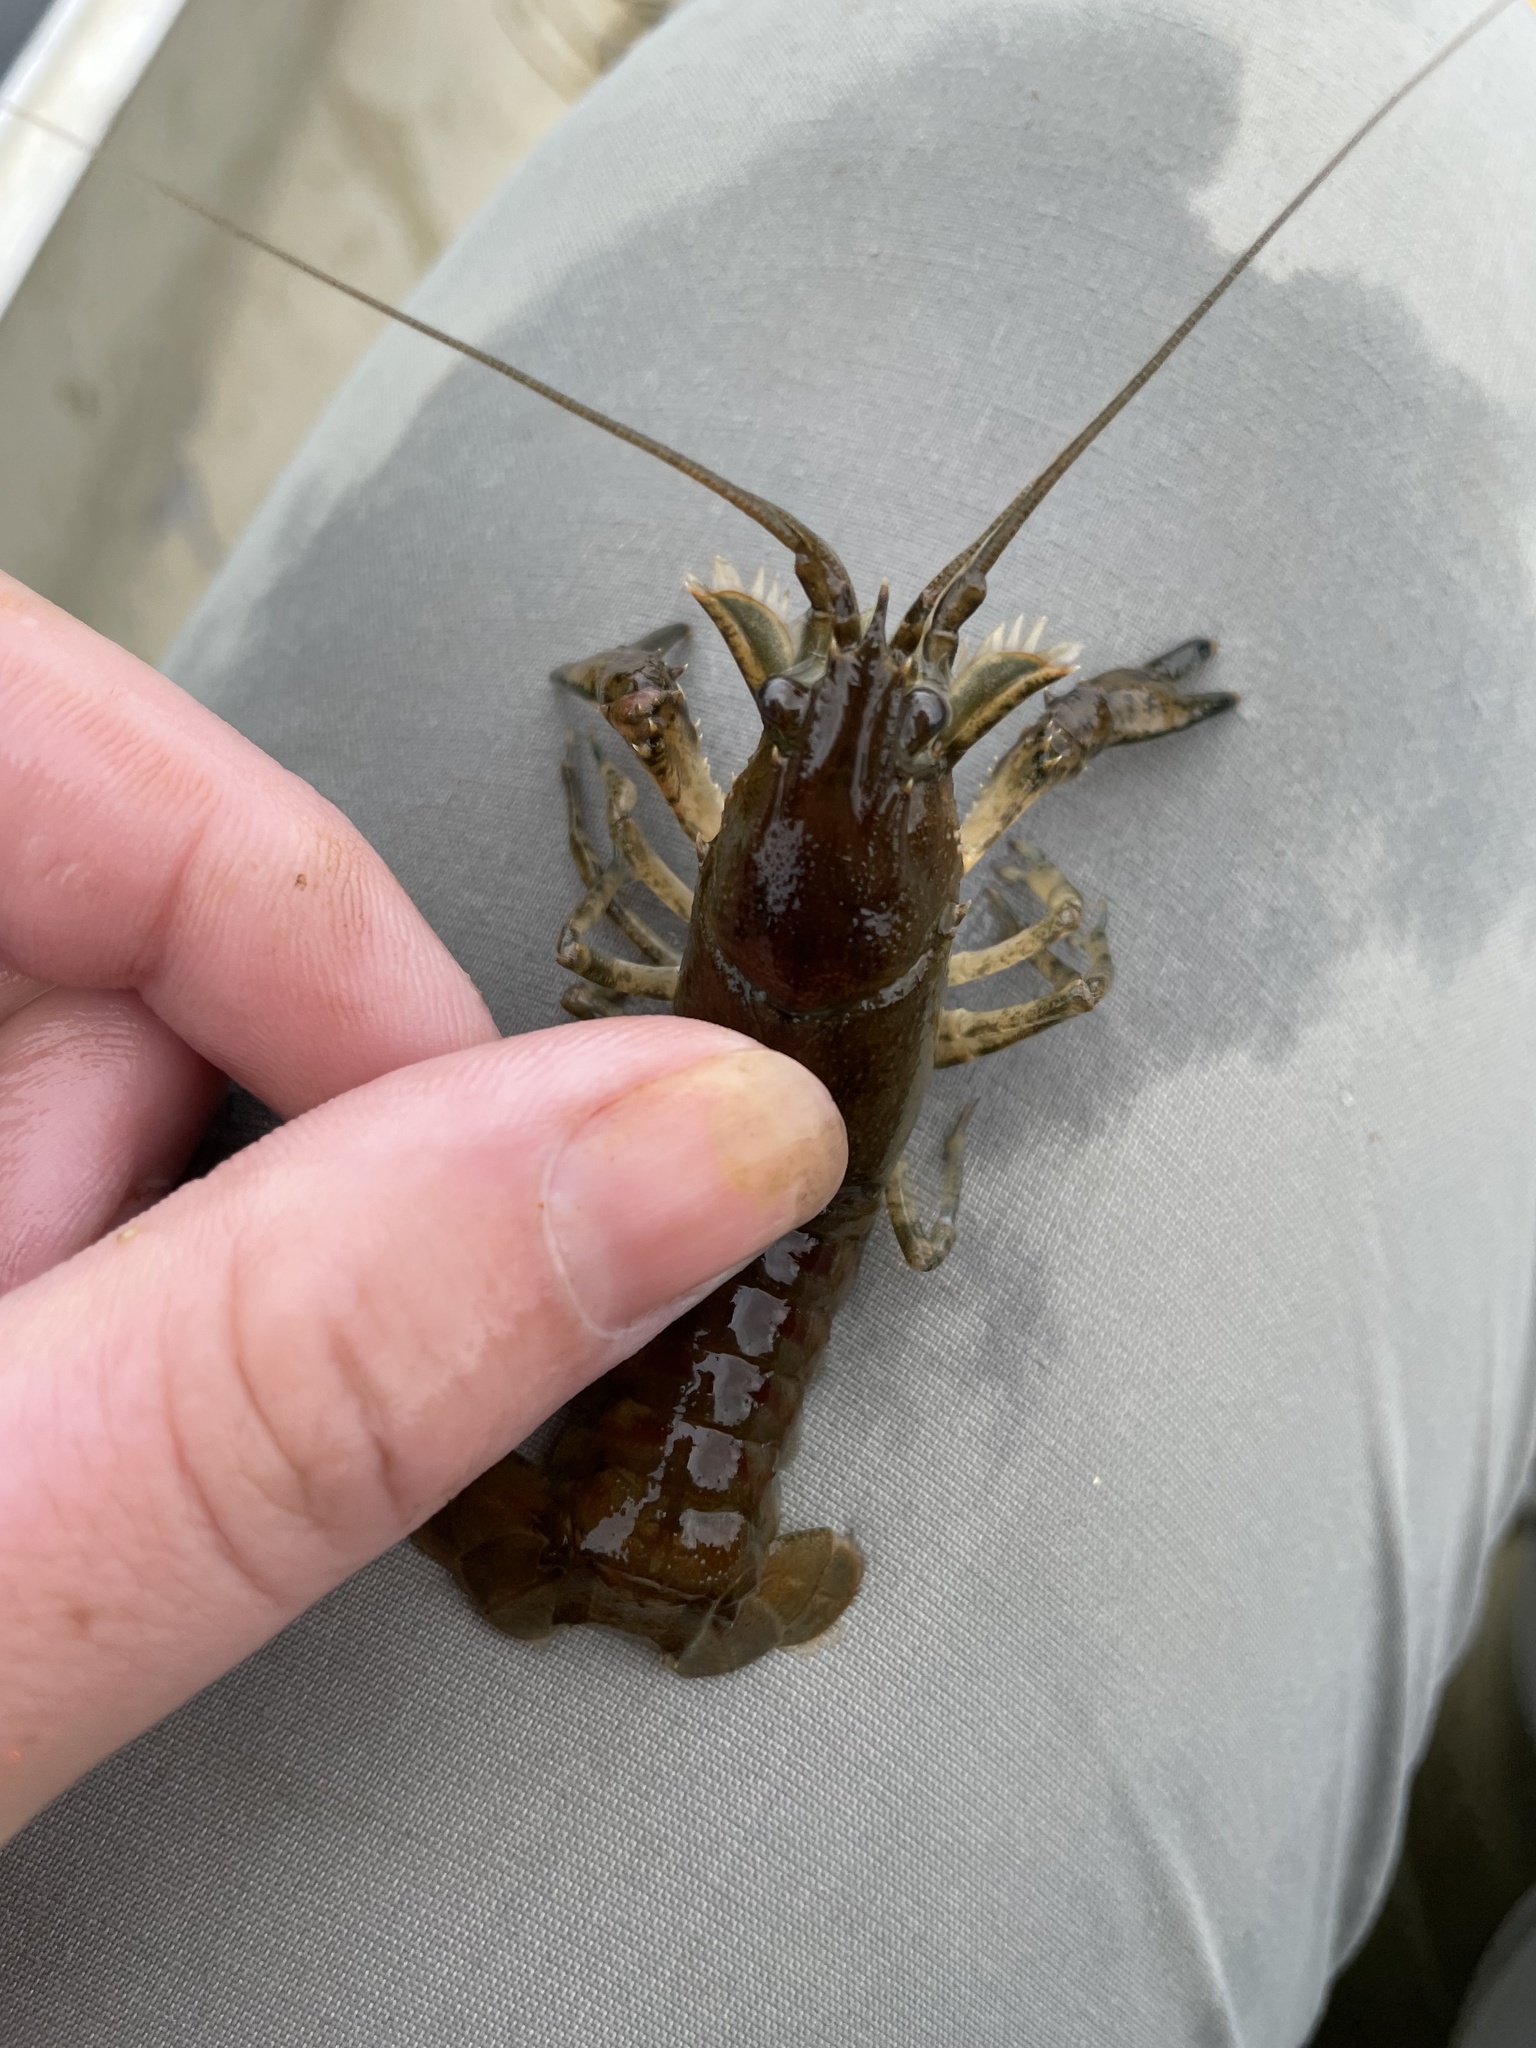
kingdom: Animalia
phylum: Arthropoda
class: Malacostraca
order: Decapoda
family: Cambaridae
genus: Faxonius
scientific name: Faxonius limosus
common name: American crayfish
